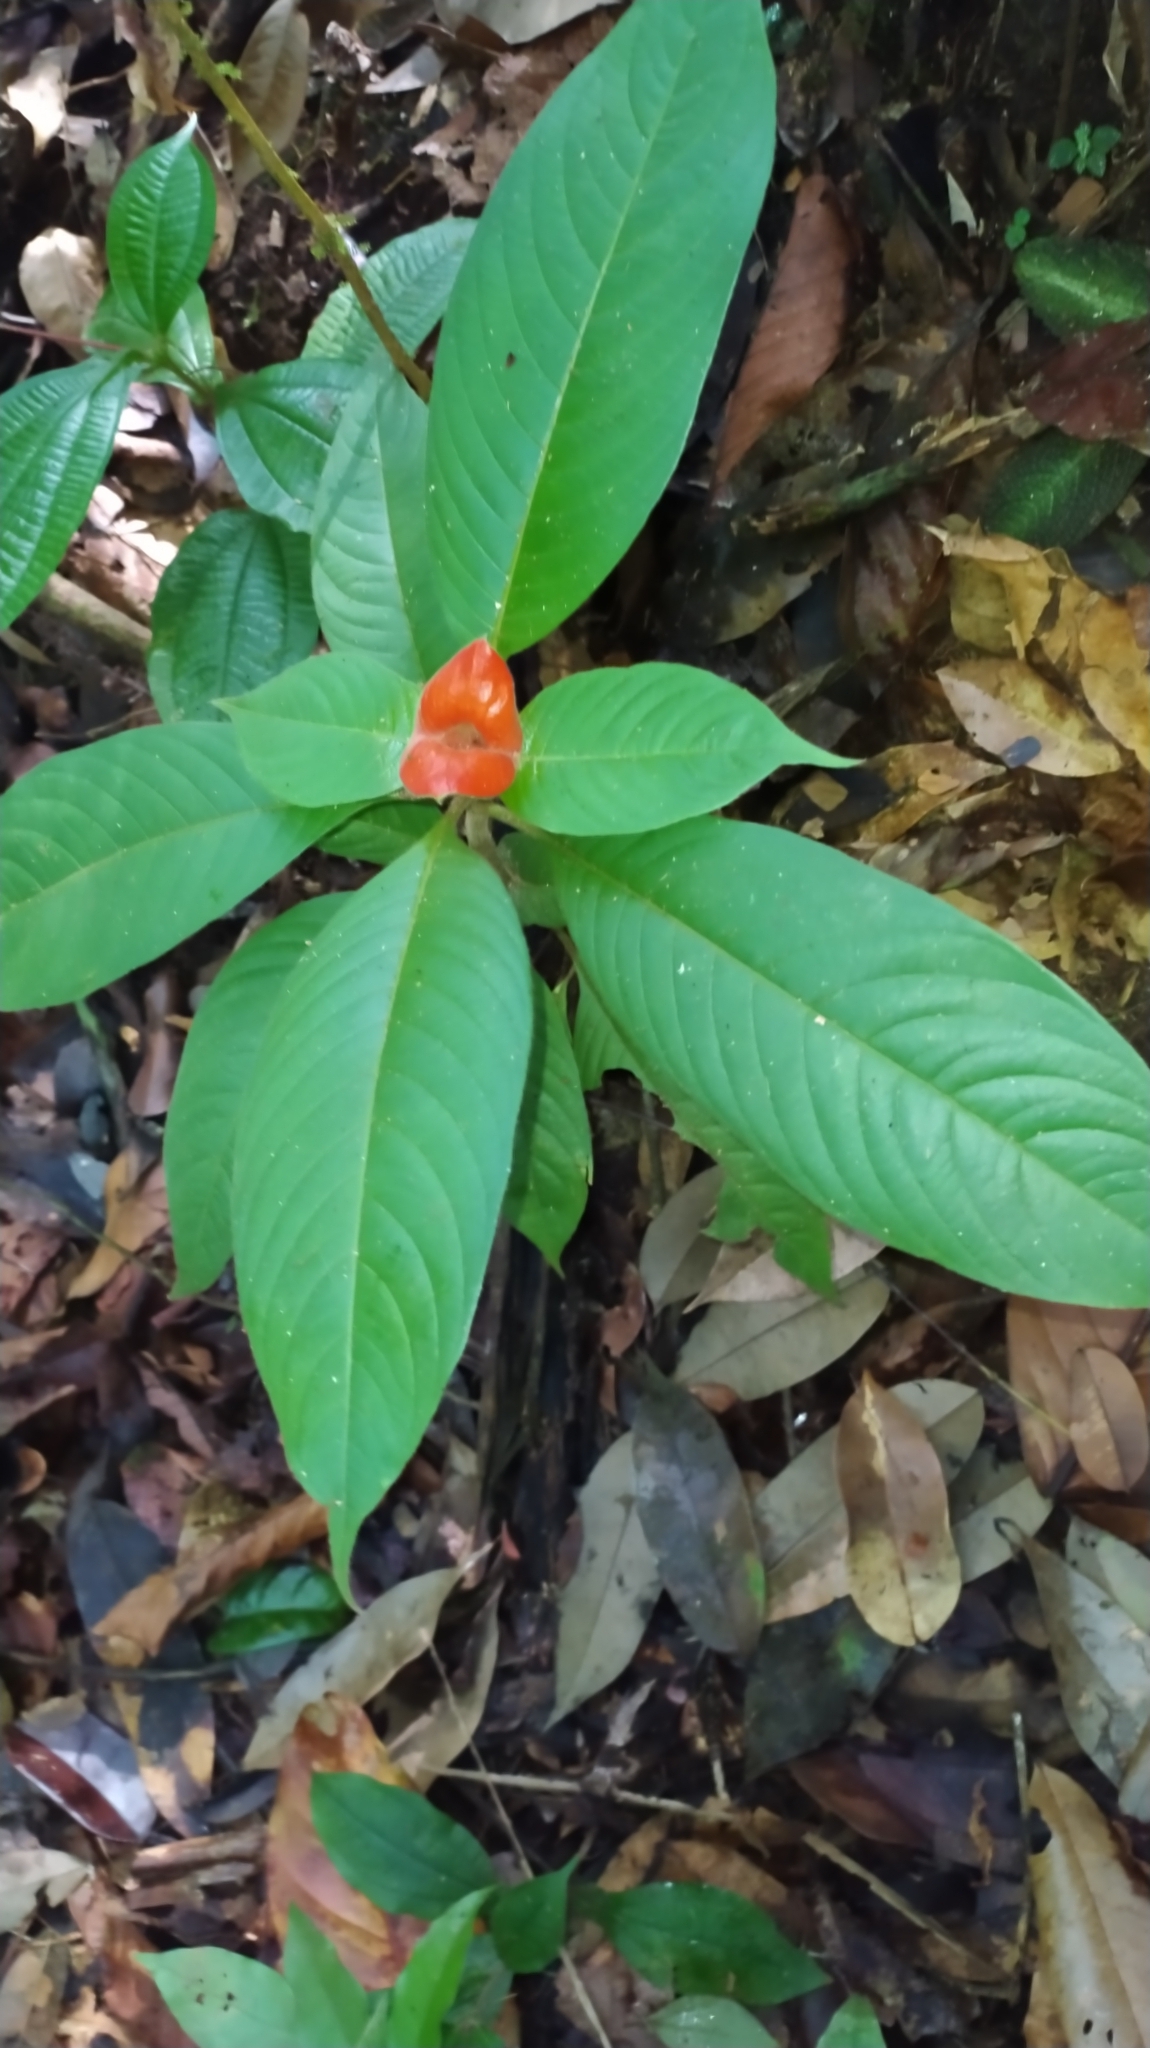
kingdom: Plantae
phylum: Tracheophyta
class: Magnoliopsida
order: Gentianales
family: Rubiaceae
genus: Palicourea
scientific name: Palicourea tomentosa
